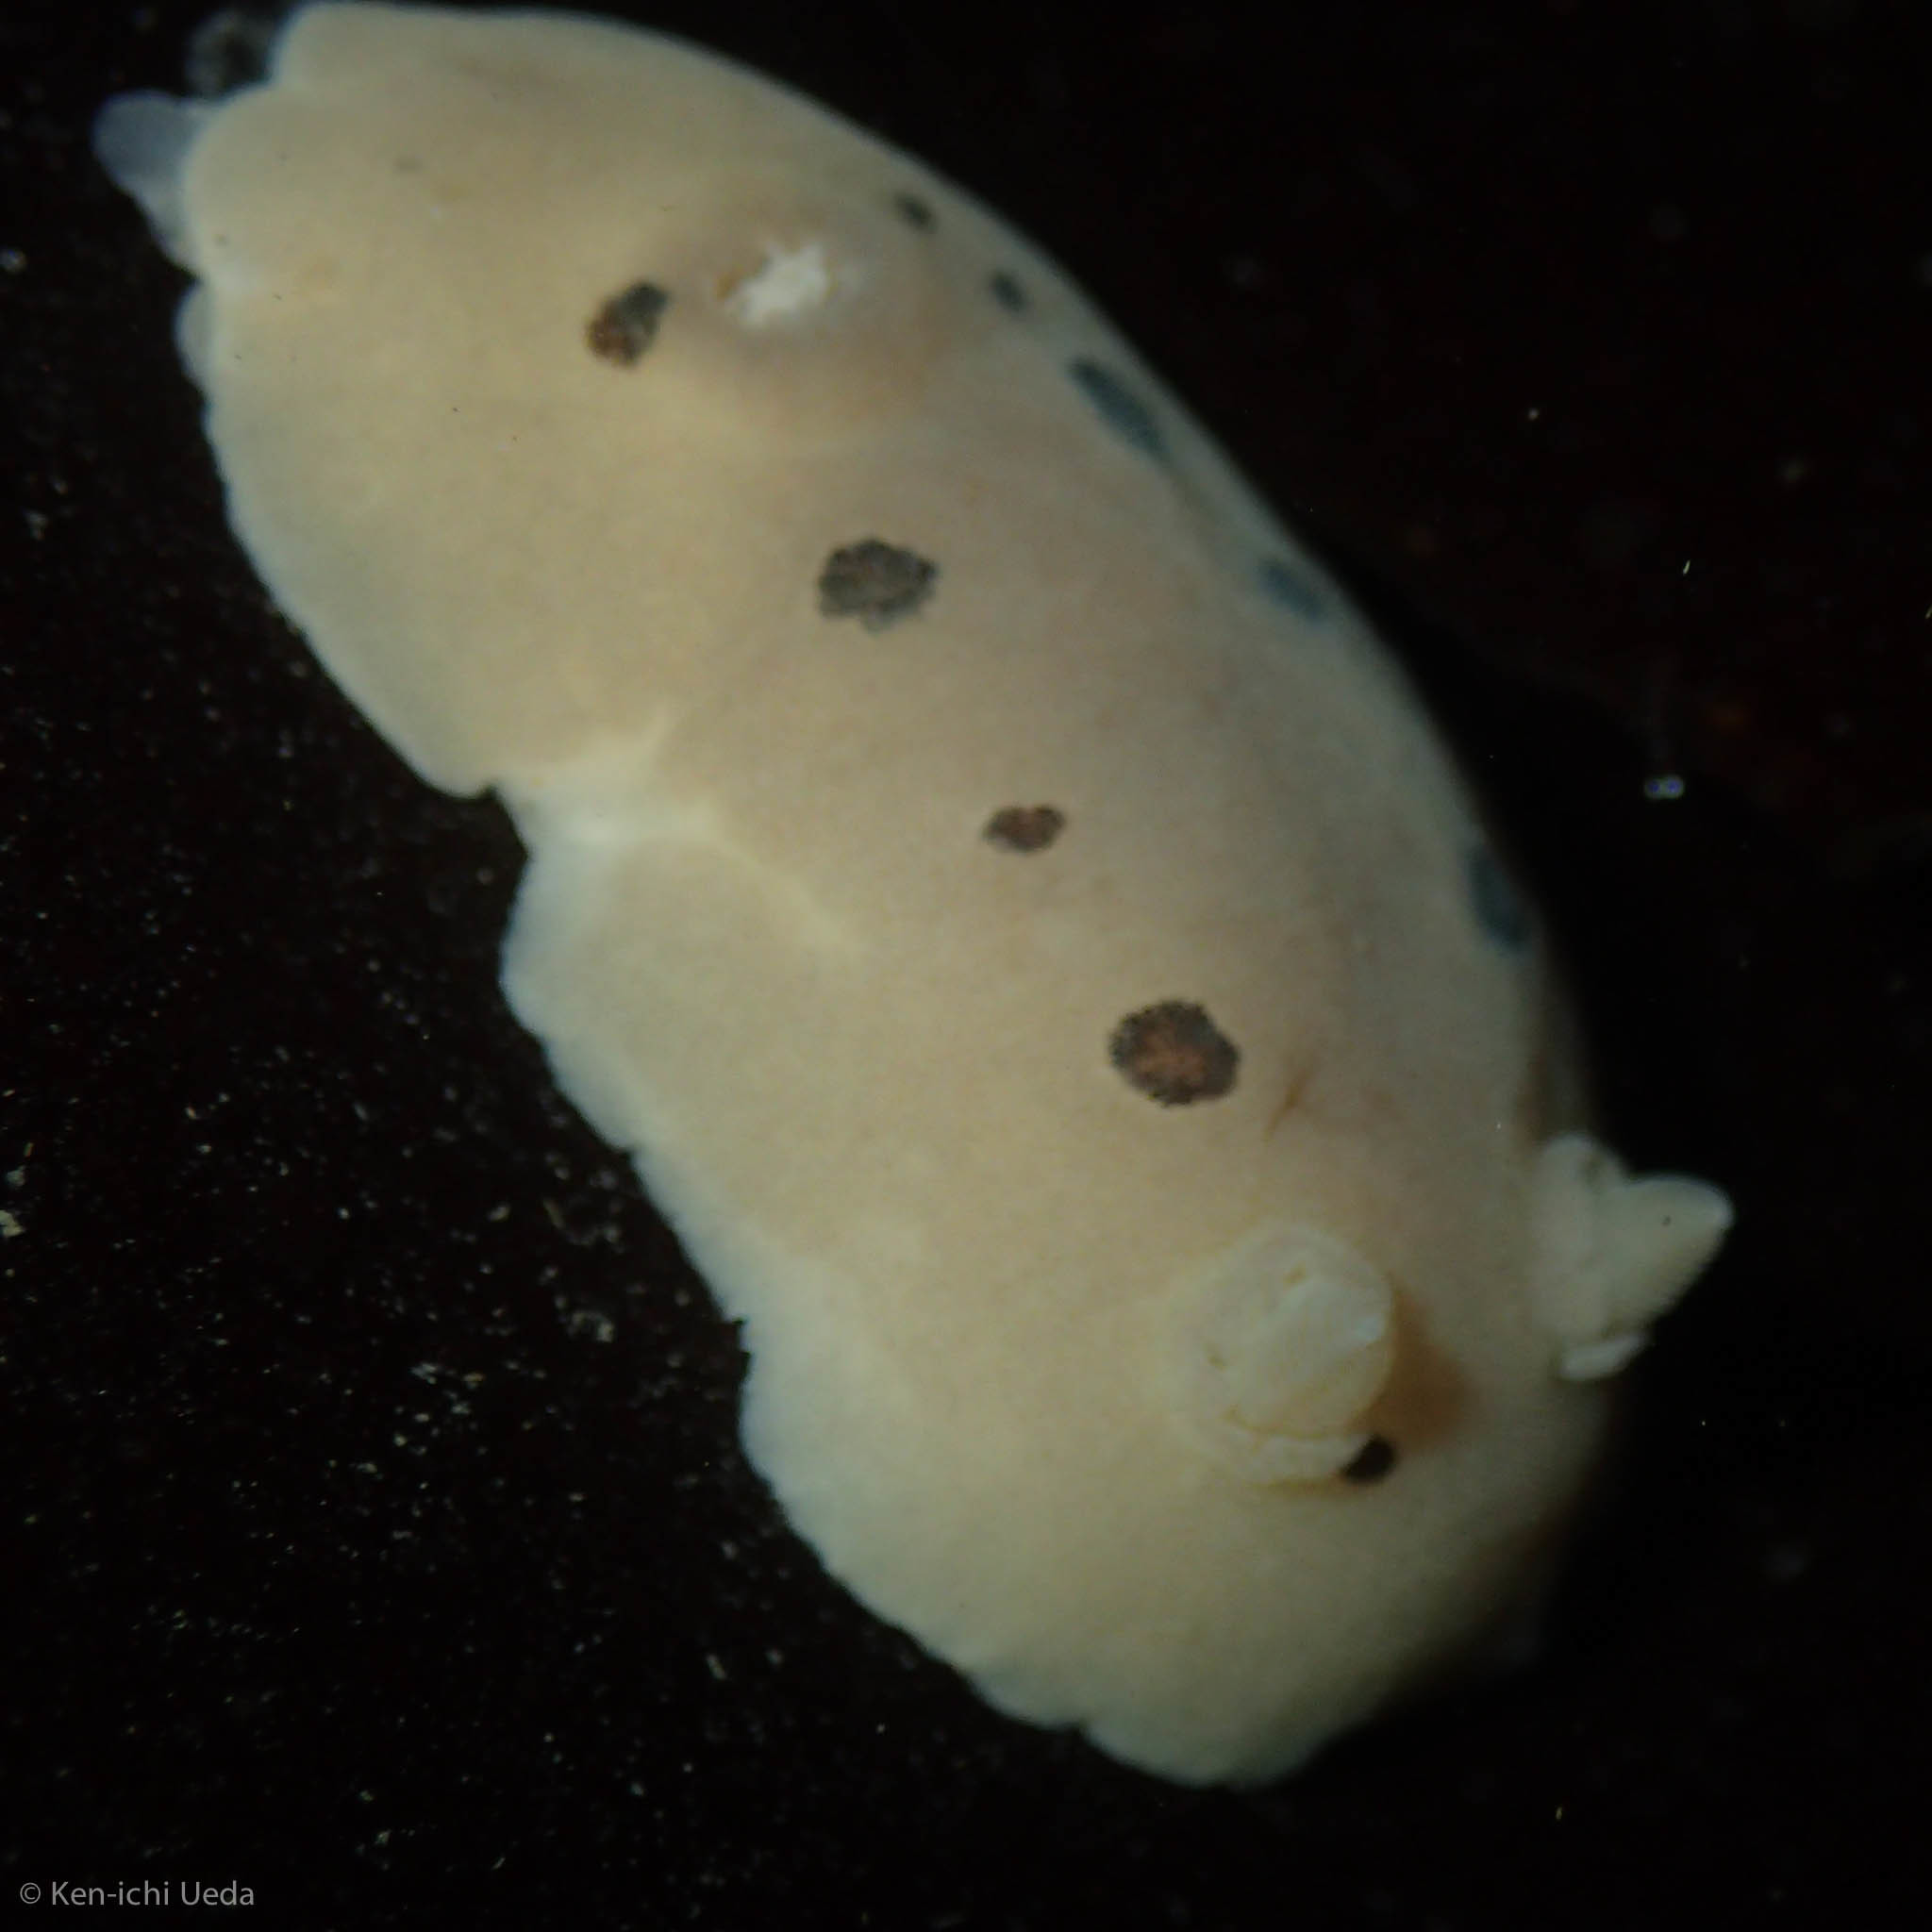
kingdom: Animalia
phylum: Mollusca
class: Gastropoda
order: Nudibranchia
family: Discodorididae
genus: Diaulula
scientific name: Diaulula sandiegensis
